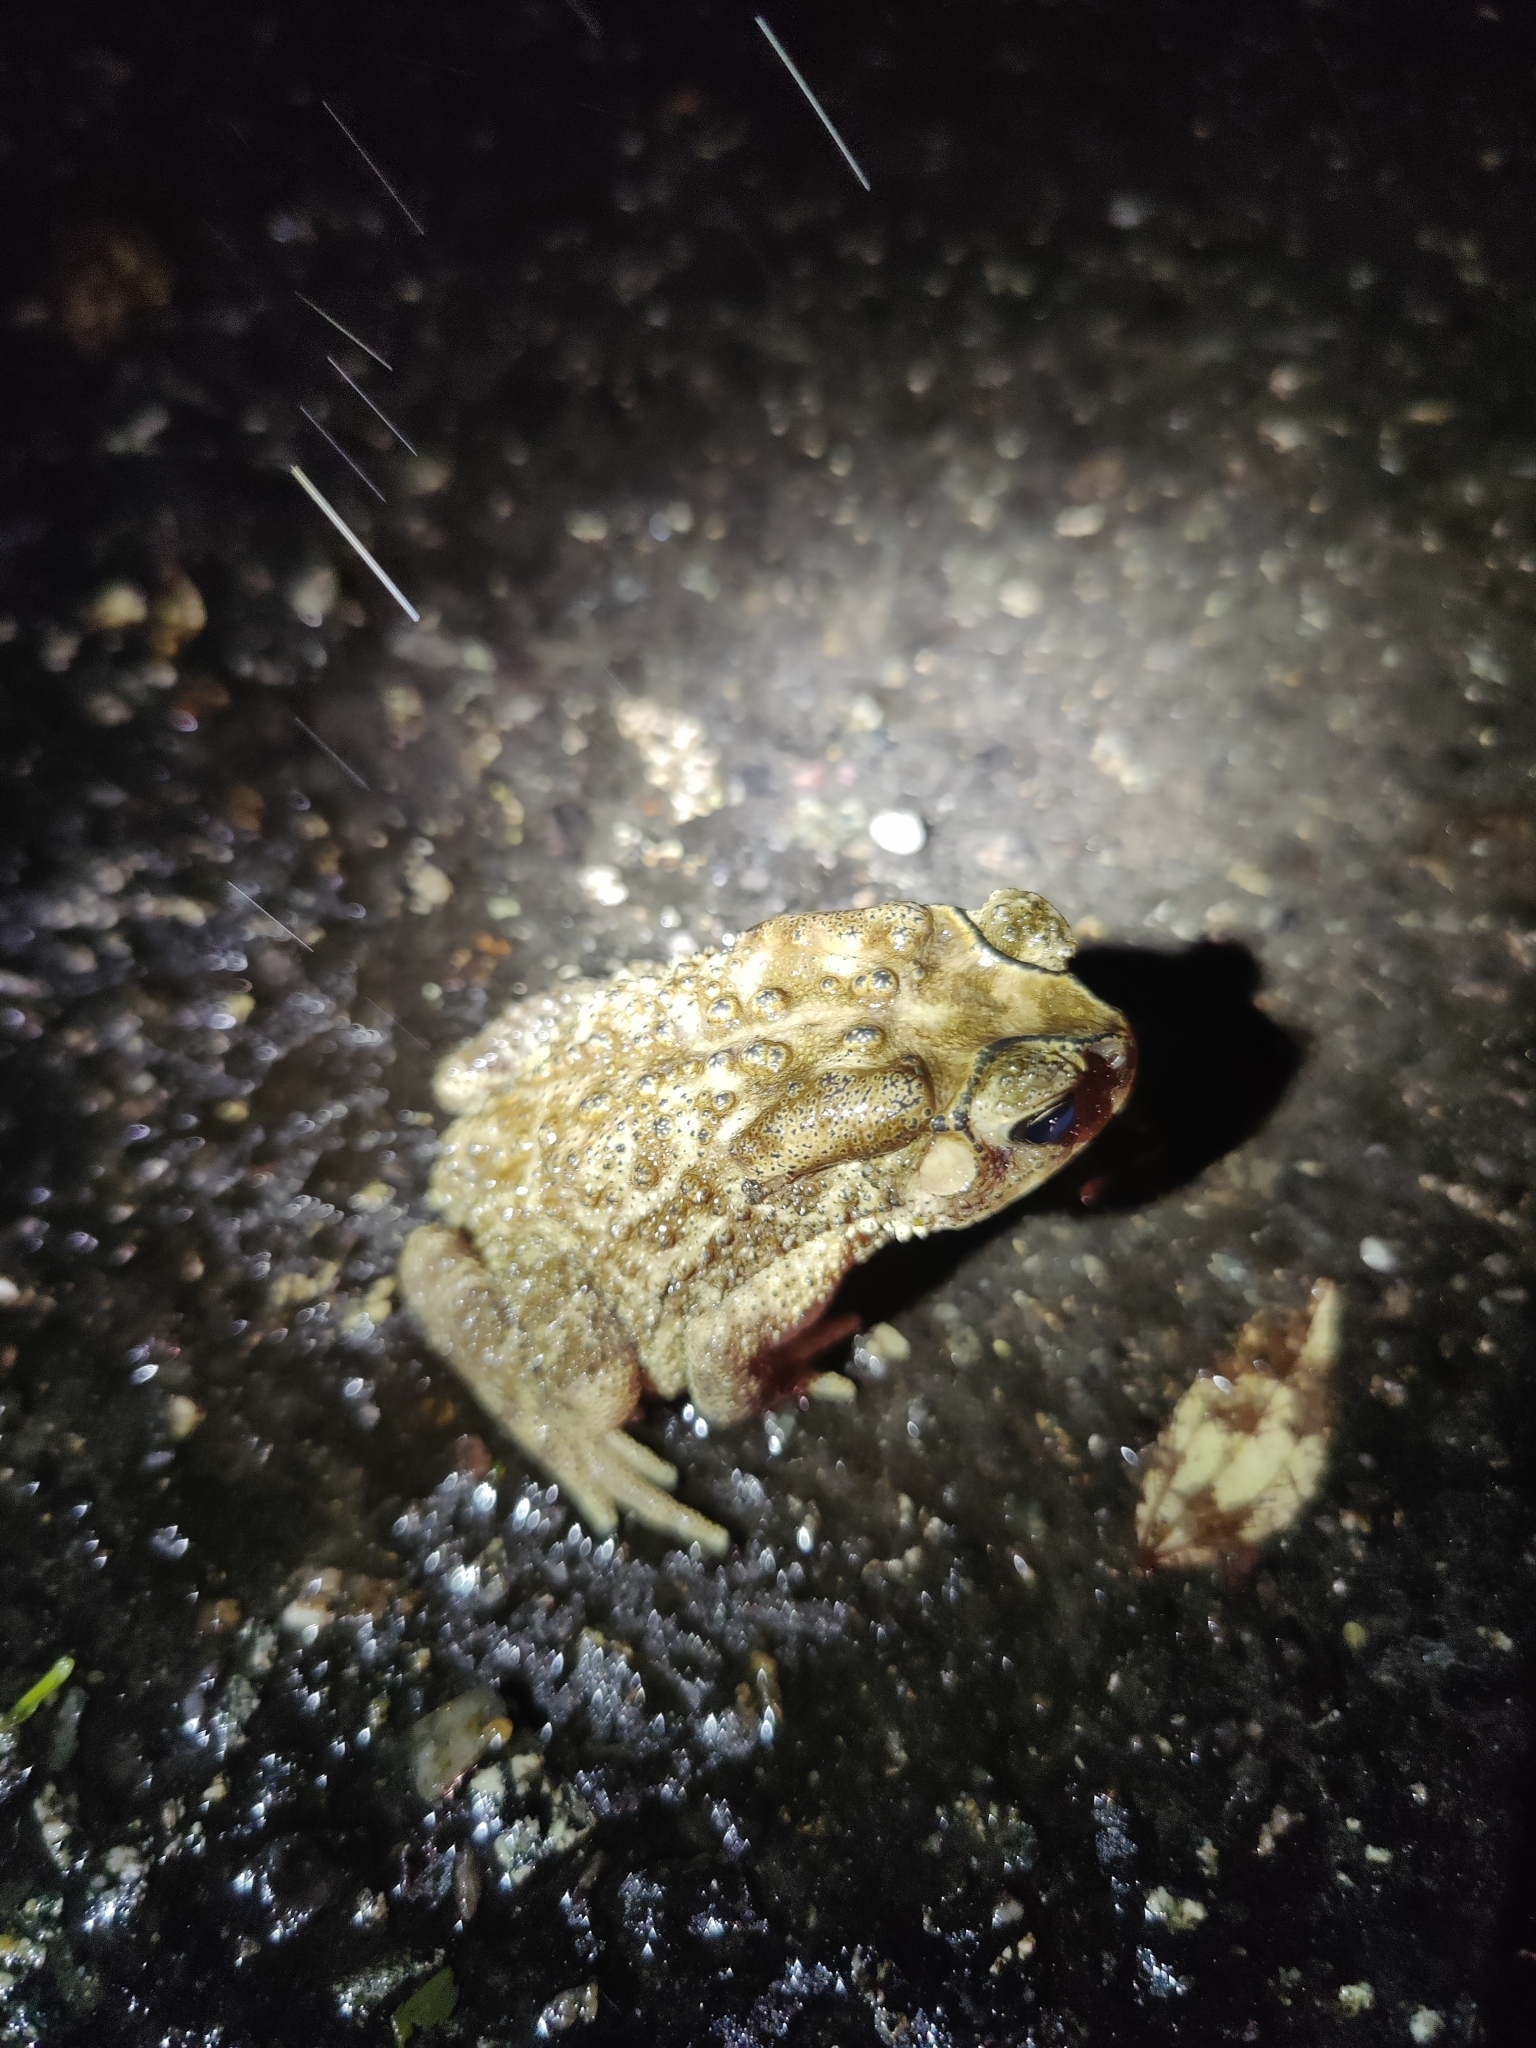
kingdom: Animalia
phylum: Chordata
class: Amphibia
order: Anura
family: Bufonidae
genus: Duttaphrynus
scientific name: Duttaphrynus melanostictus
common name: Common sunda toad
